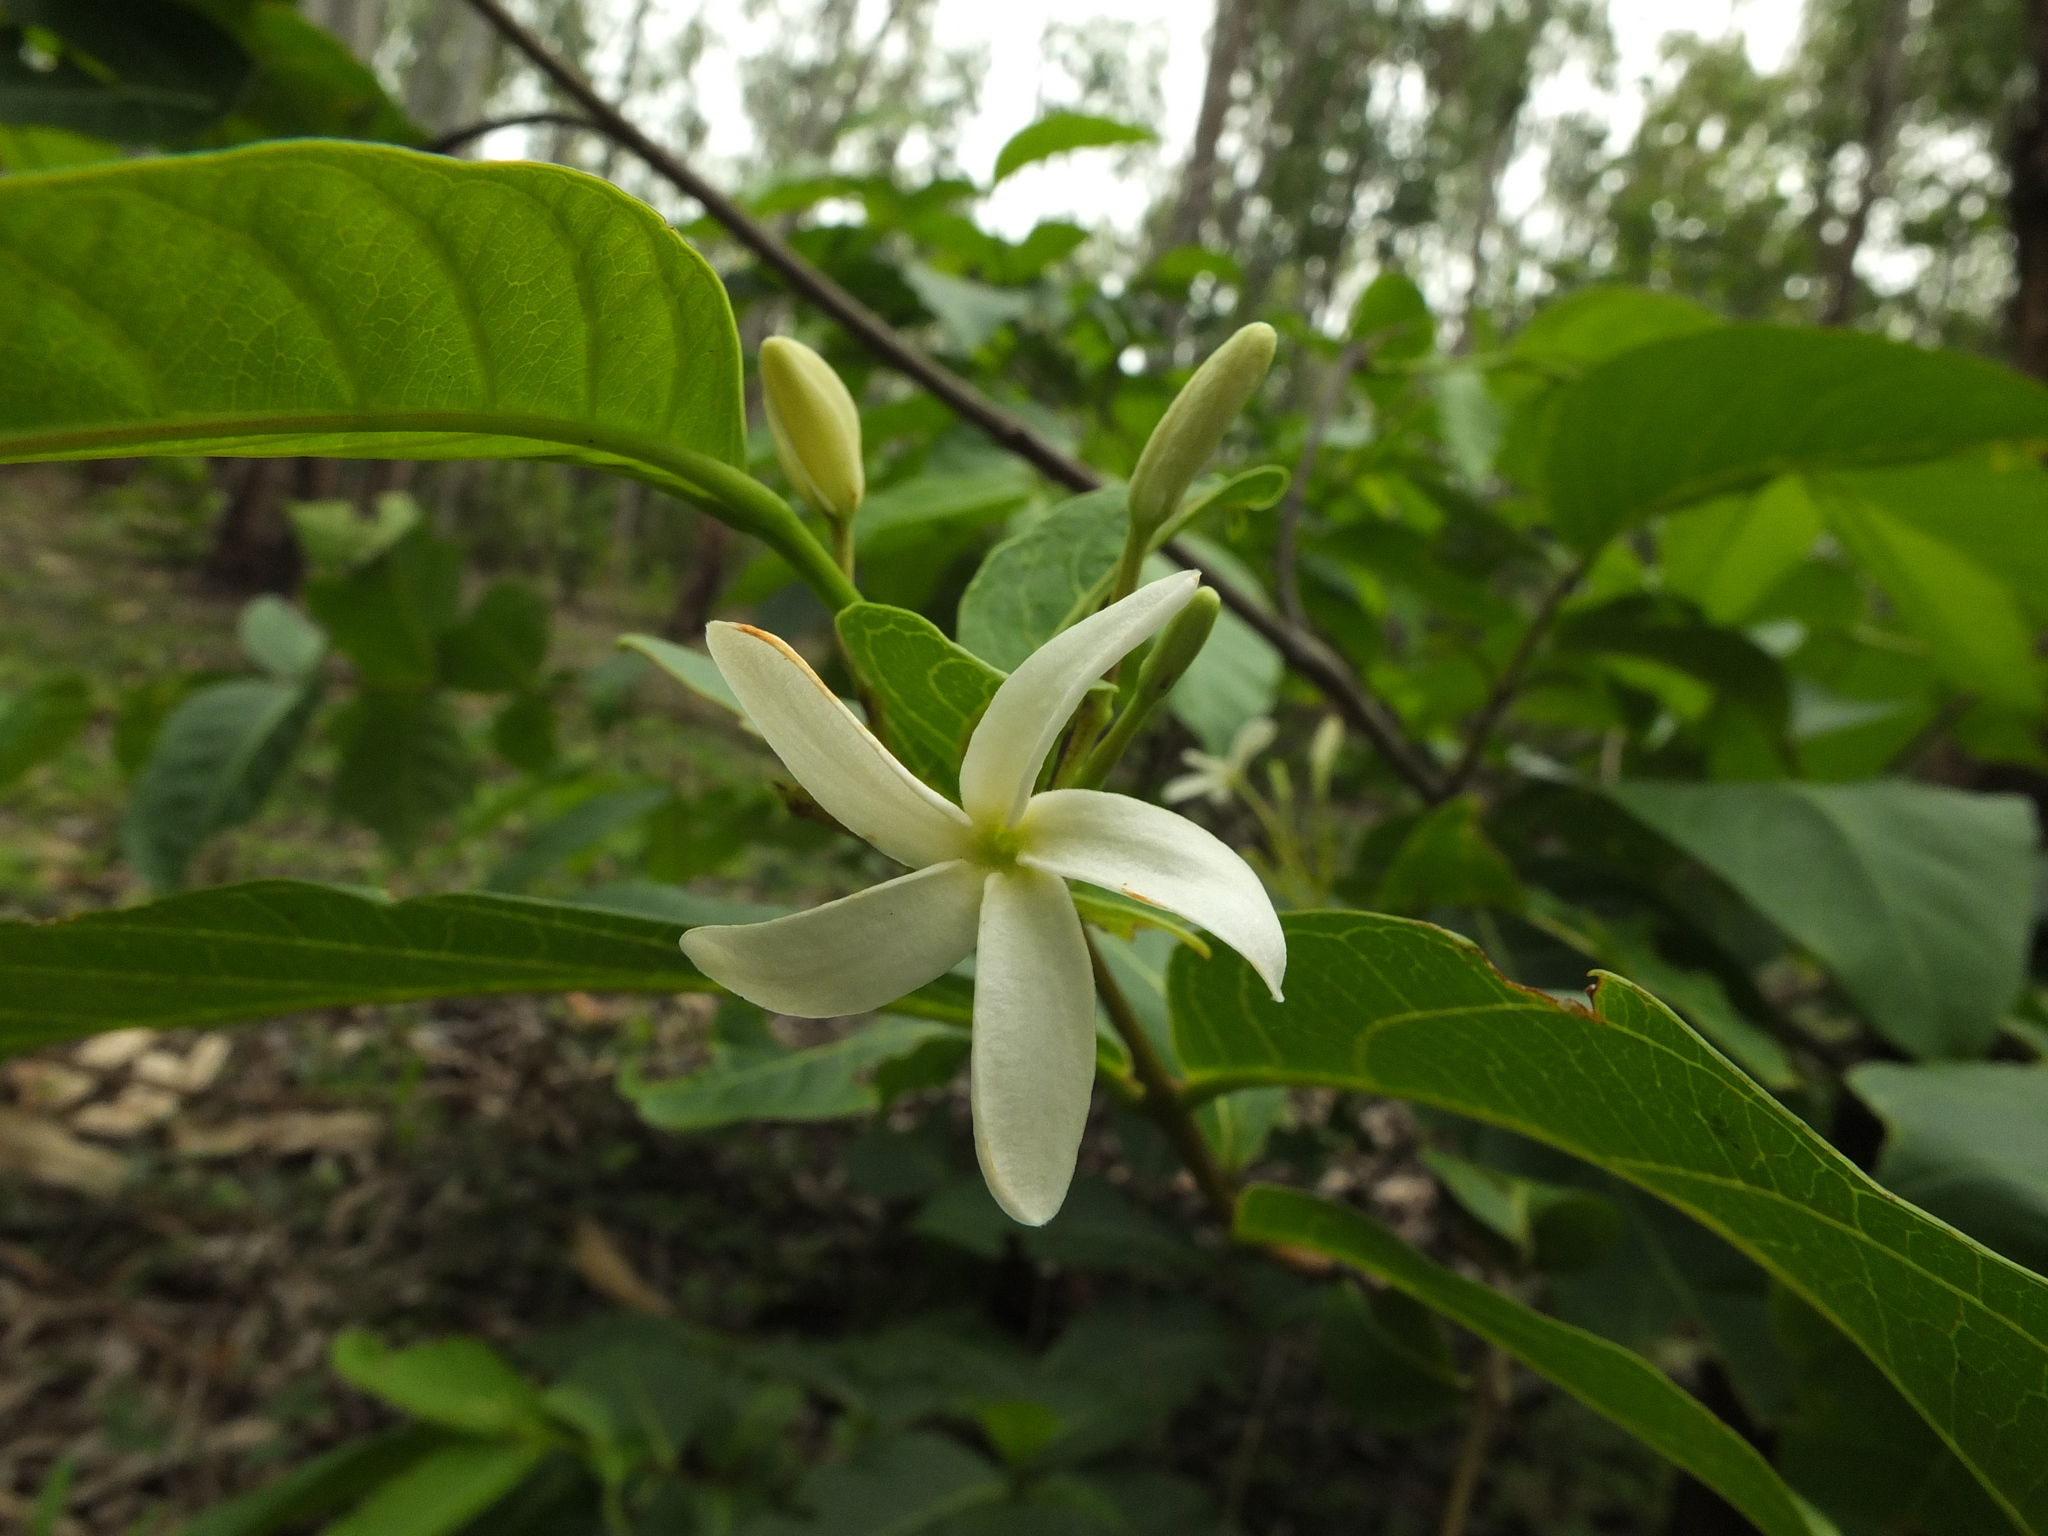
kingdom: Plantae
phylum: Tracheophyta
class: Magnoliopsida
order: Gentianales
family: Apocynaceae
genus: Holarrhena
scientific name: Holarrhena pubescens
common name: Bitter oleander
